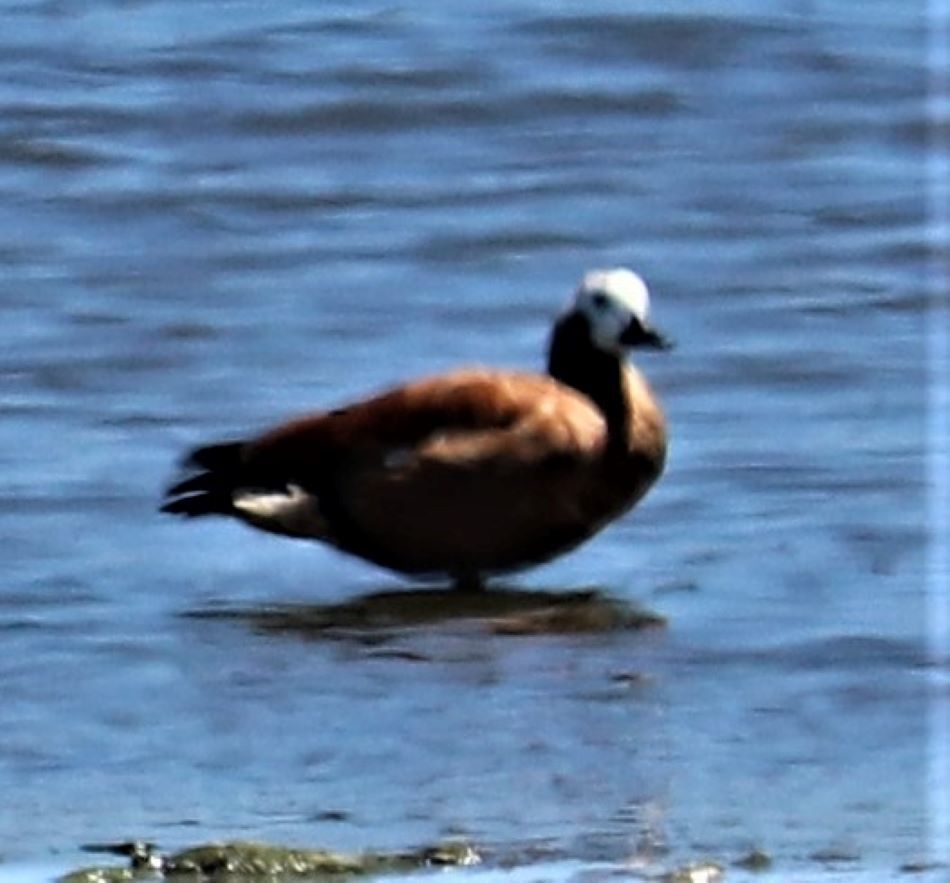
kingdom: Animalia
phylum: Chordata
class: Aves
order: Anseriformes
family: Anatidae
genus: Tadorna
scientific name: Tadorna cana
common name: South african shelduck
